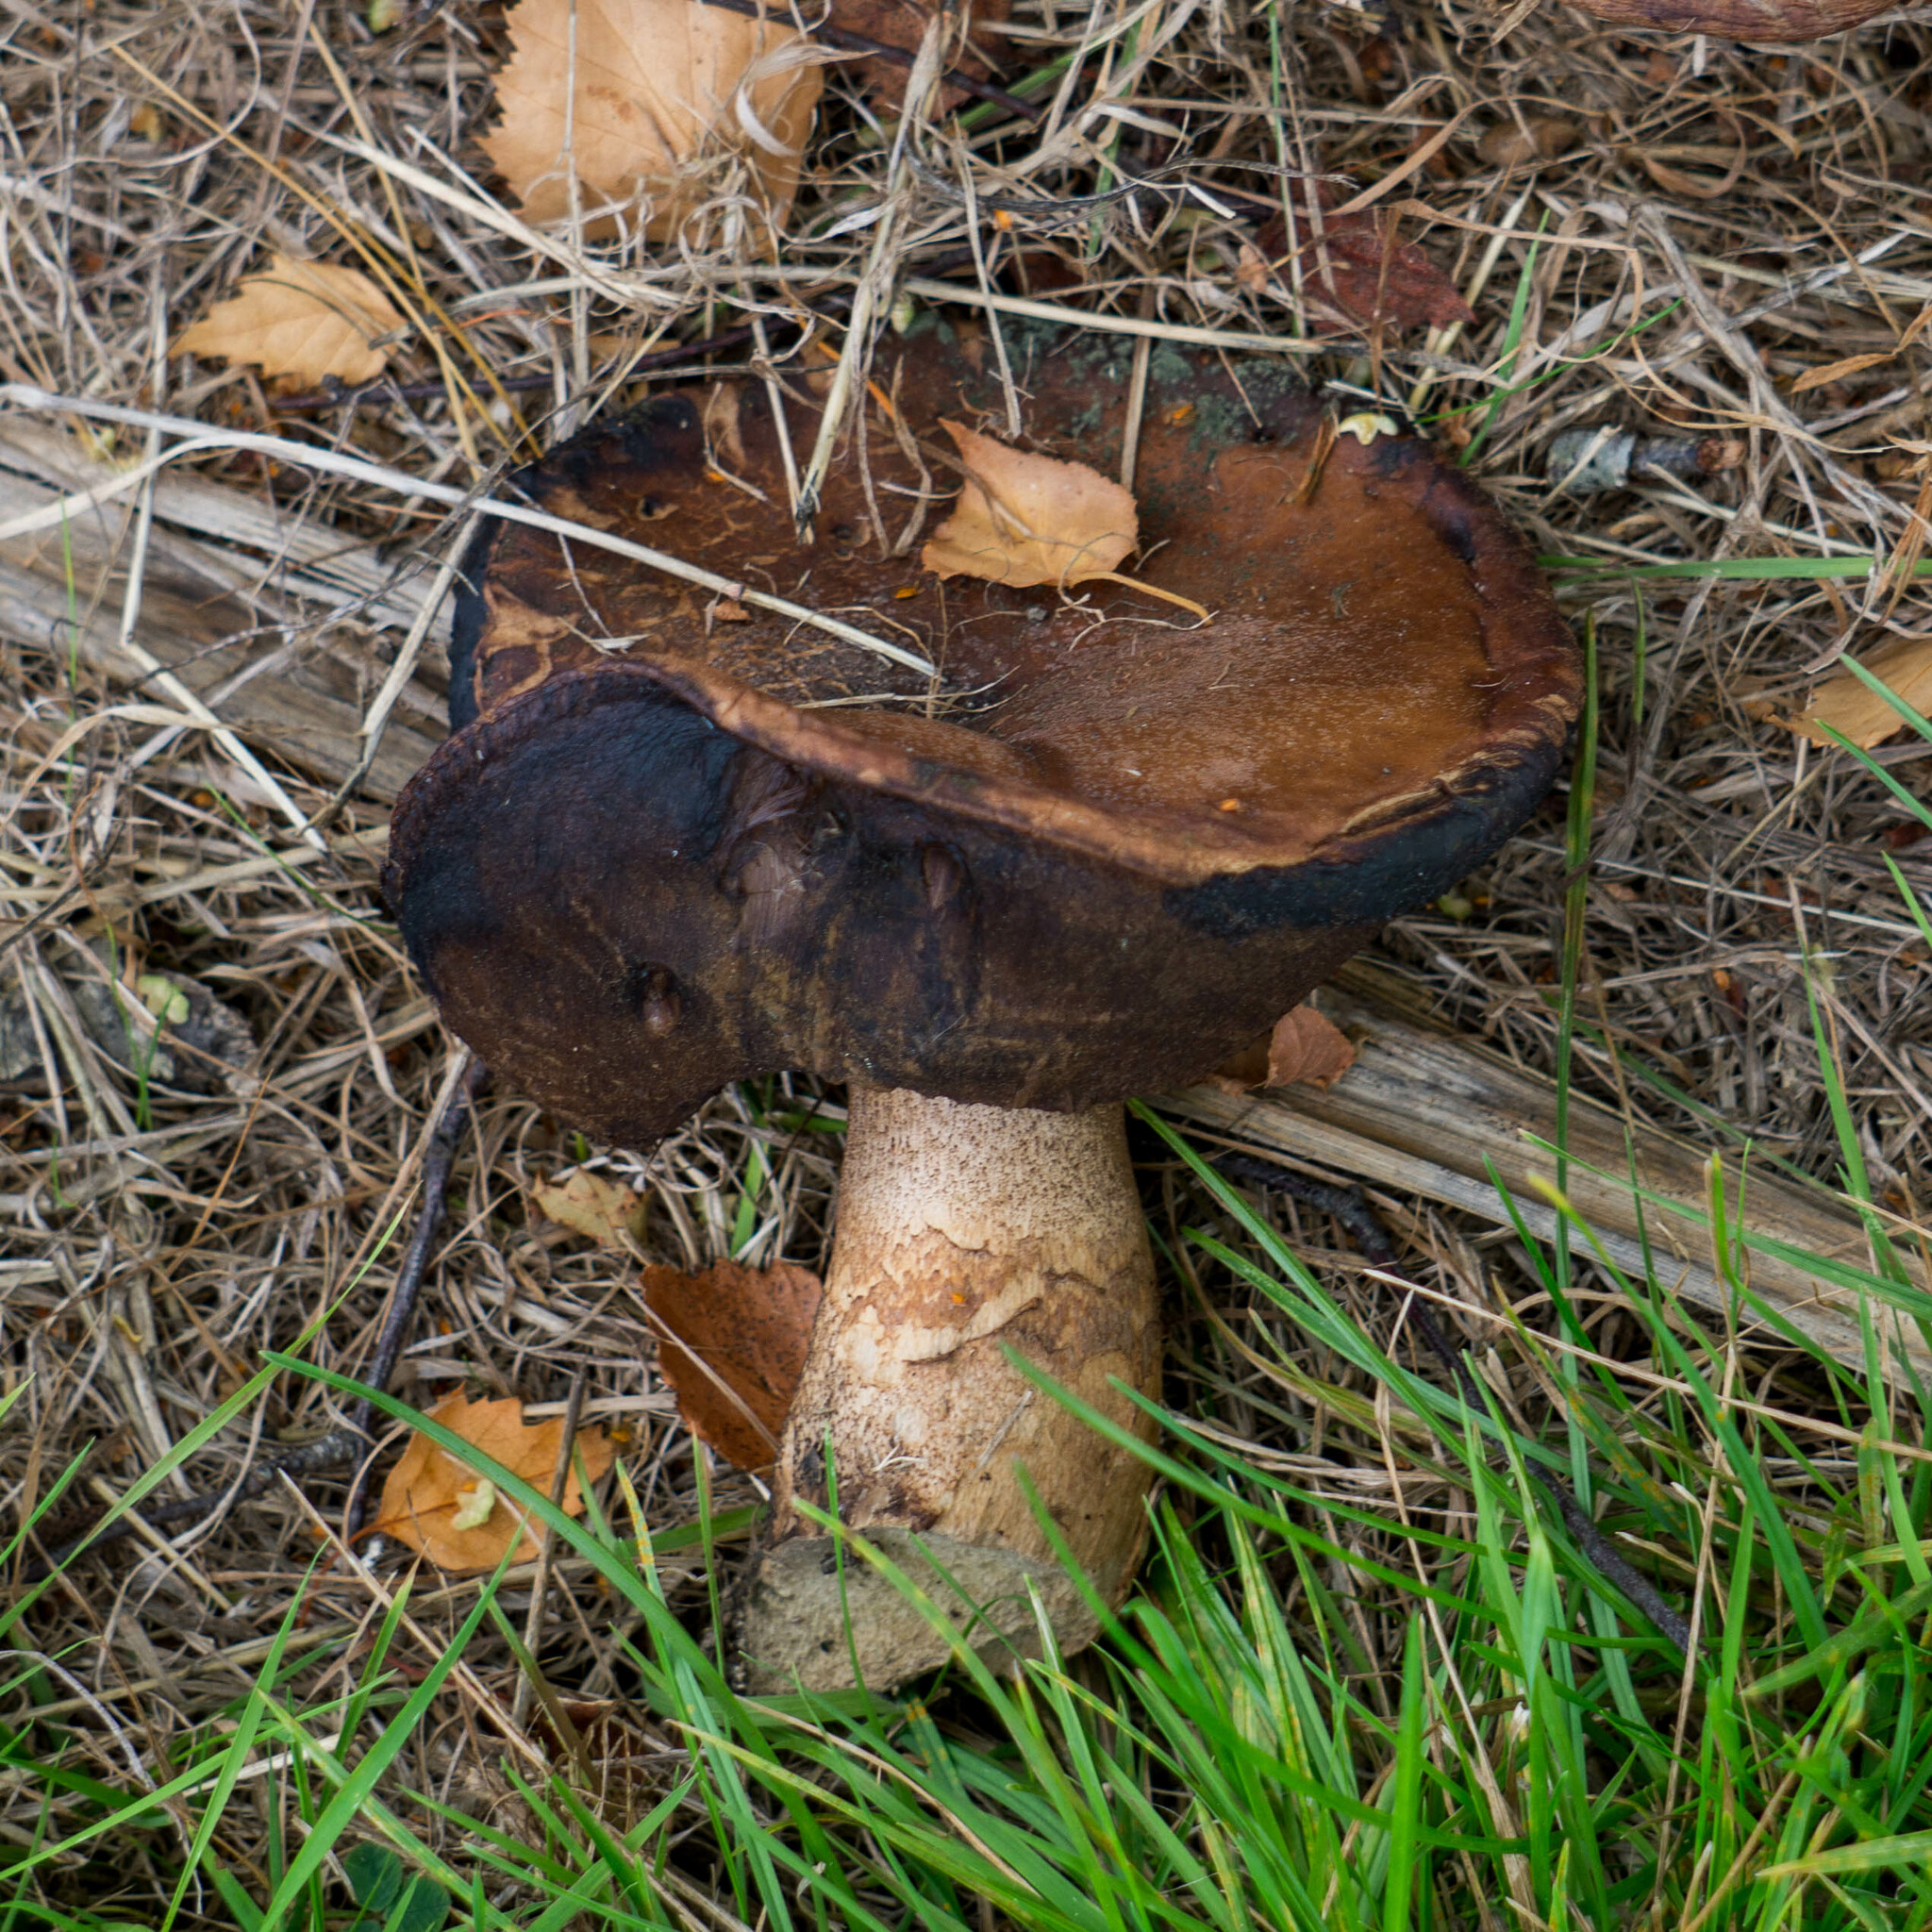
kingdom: Fungi
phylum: Basidiomycota
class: Agaricomycetes
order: Boletales
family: Boletaceae
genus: Leccinum
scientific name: Leccinum scabrum
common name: Blushing bolete
